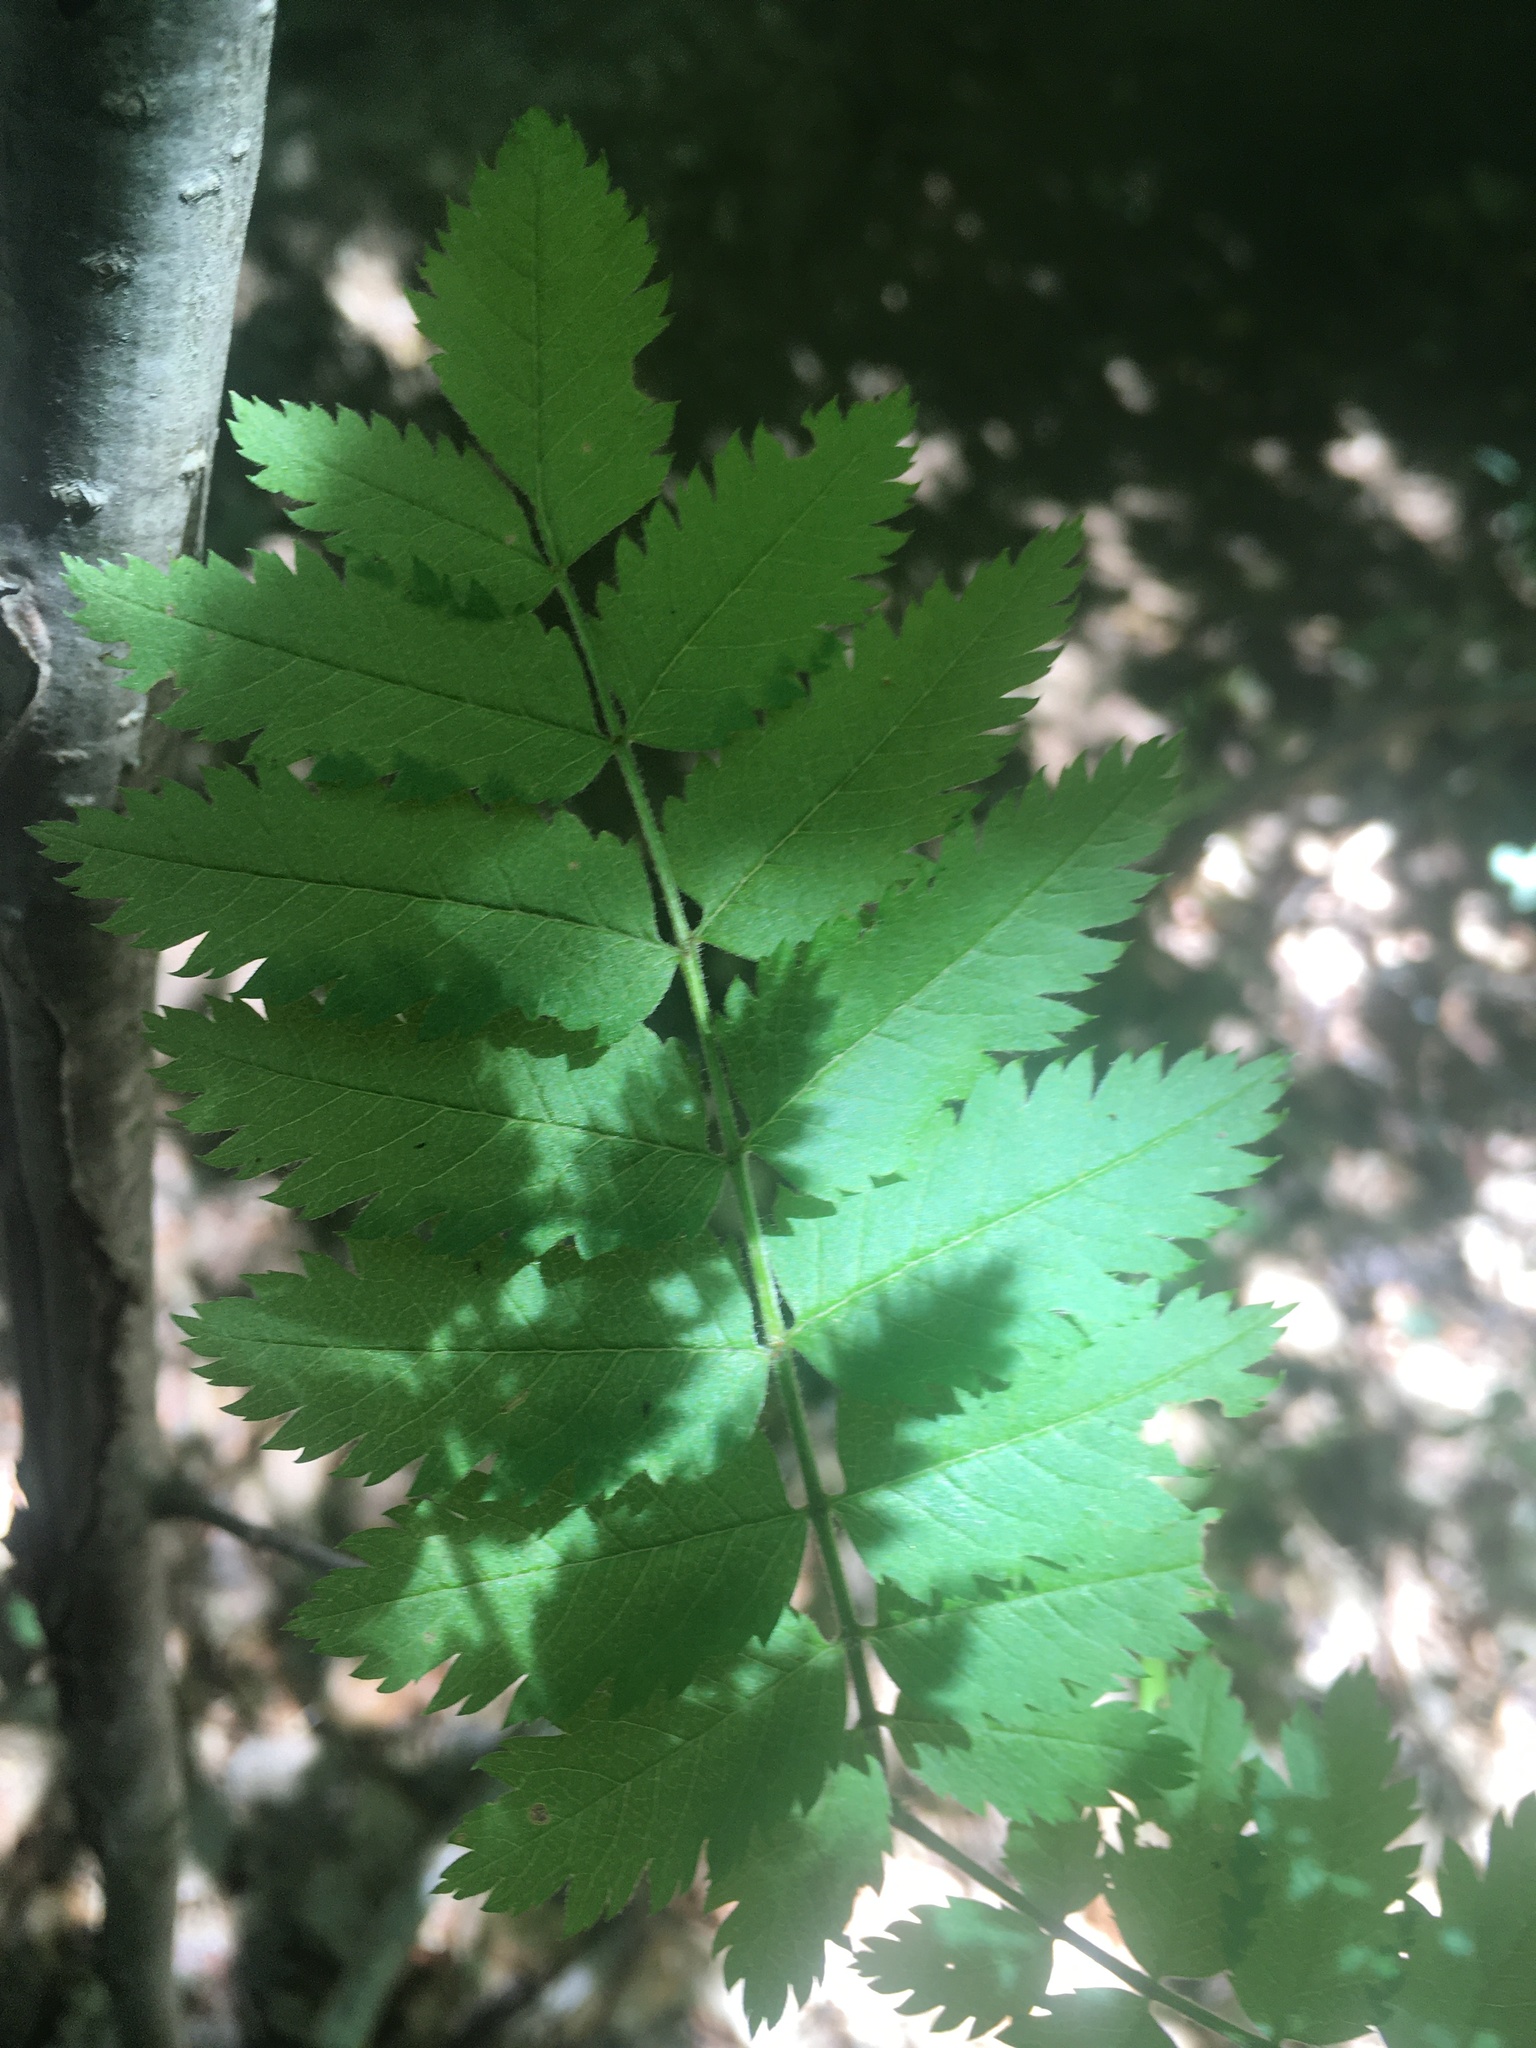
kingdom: Plantae
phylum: Tracheophyta
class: Magnoliopsida
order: Rosales
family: Rosaceae
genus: Sorbus
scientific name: Sorbus aucuparia
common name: Rowan
